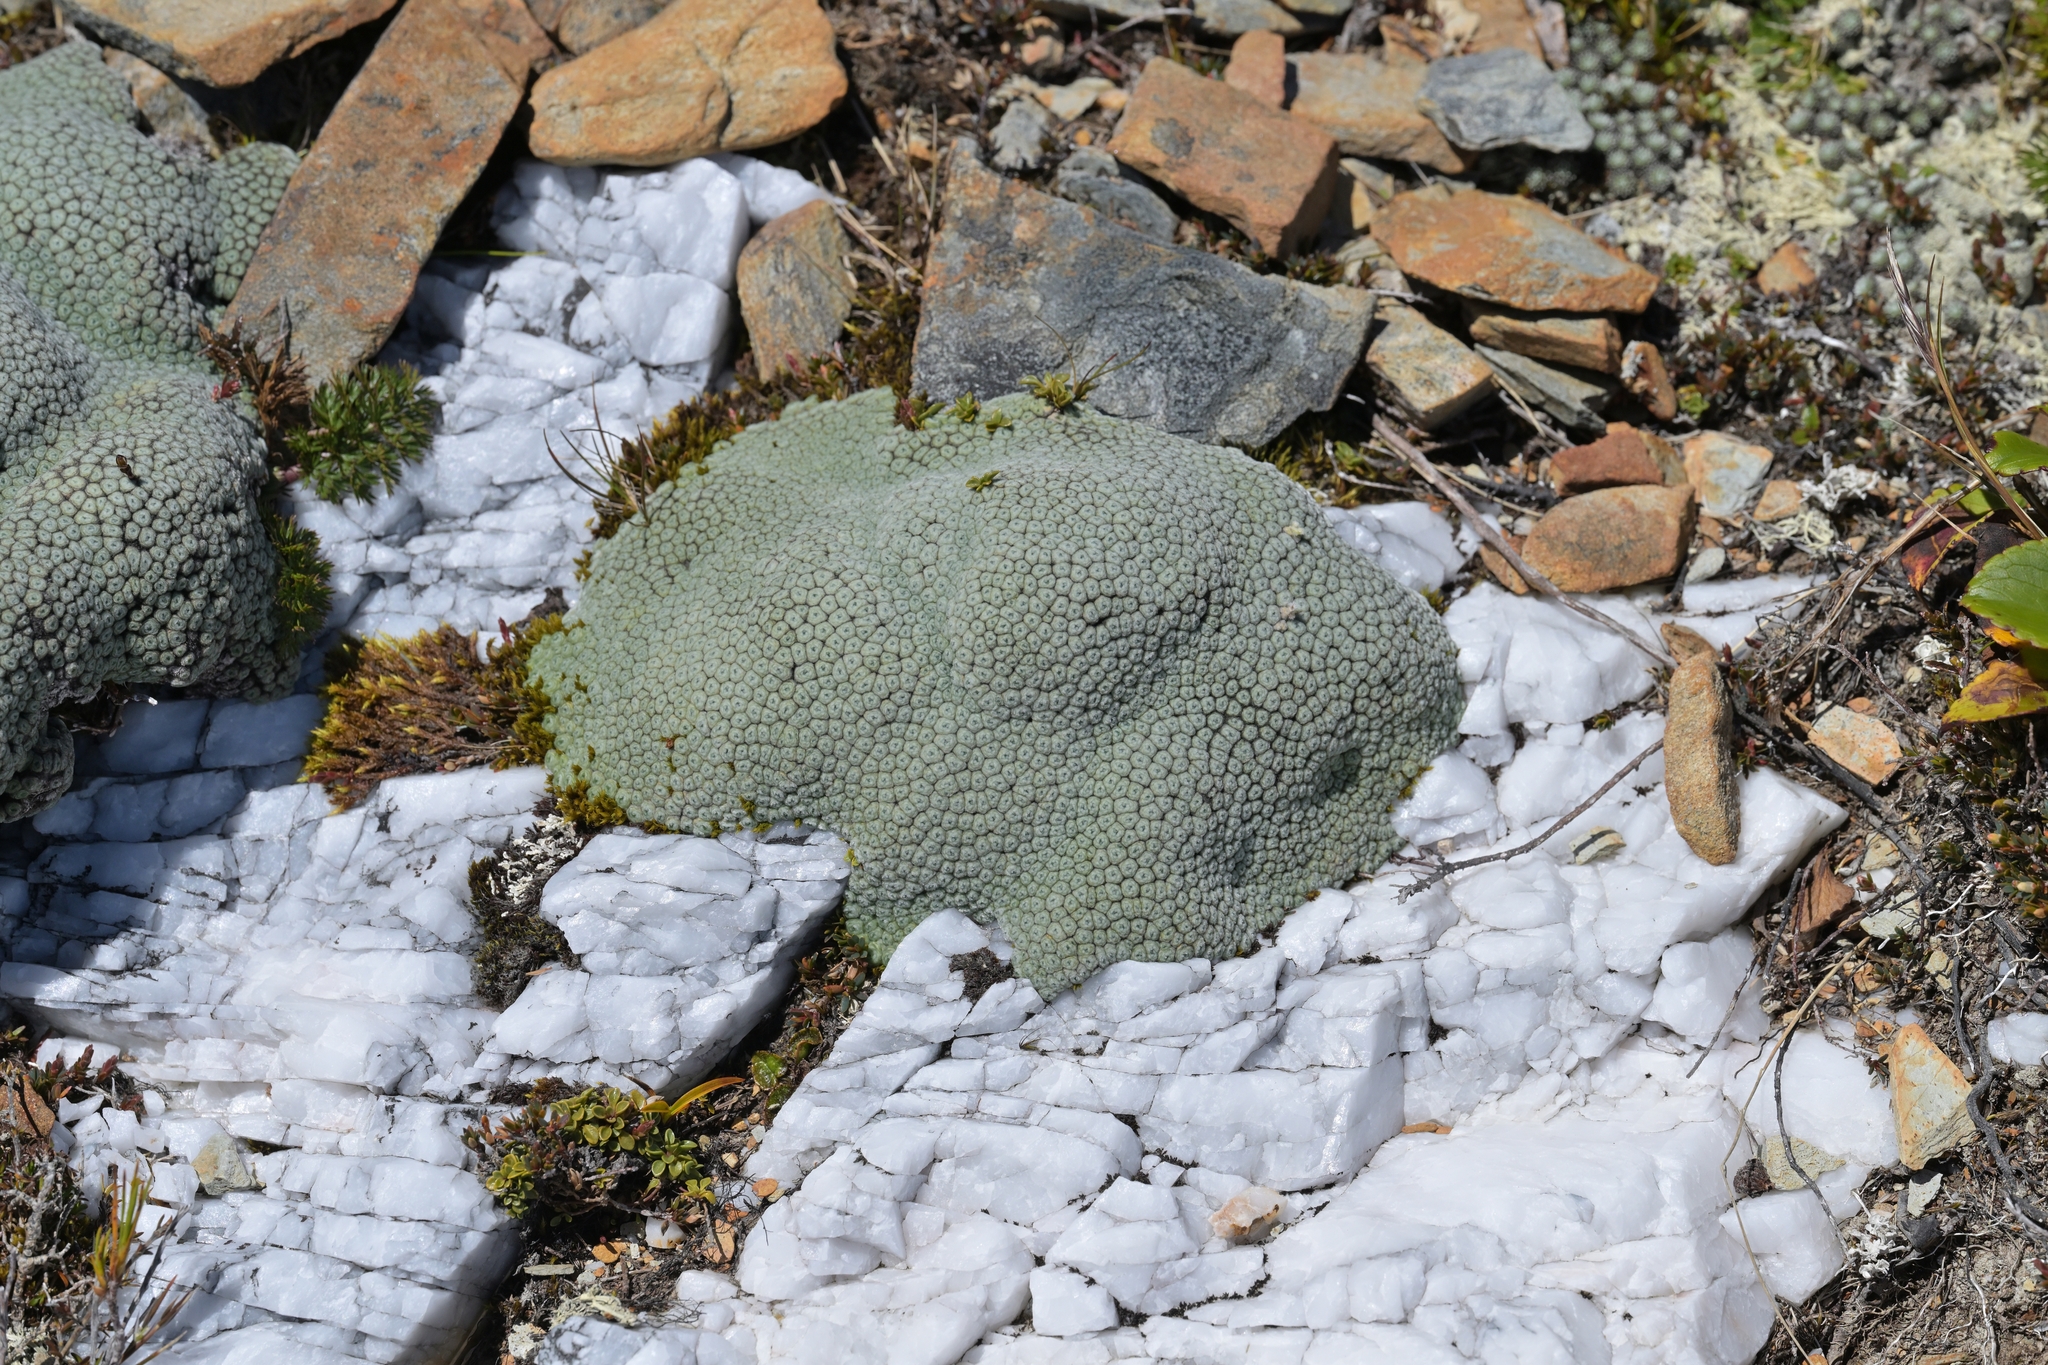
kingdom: Plantae
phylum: Tracheophyta
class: Magnoliopsida
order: Asterales
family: Asteraceae
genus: Raoulia
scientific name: Raoulia eximia
